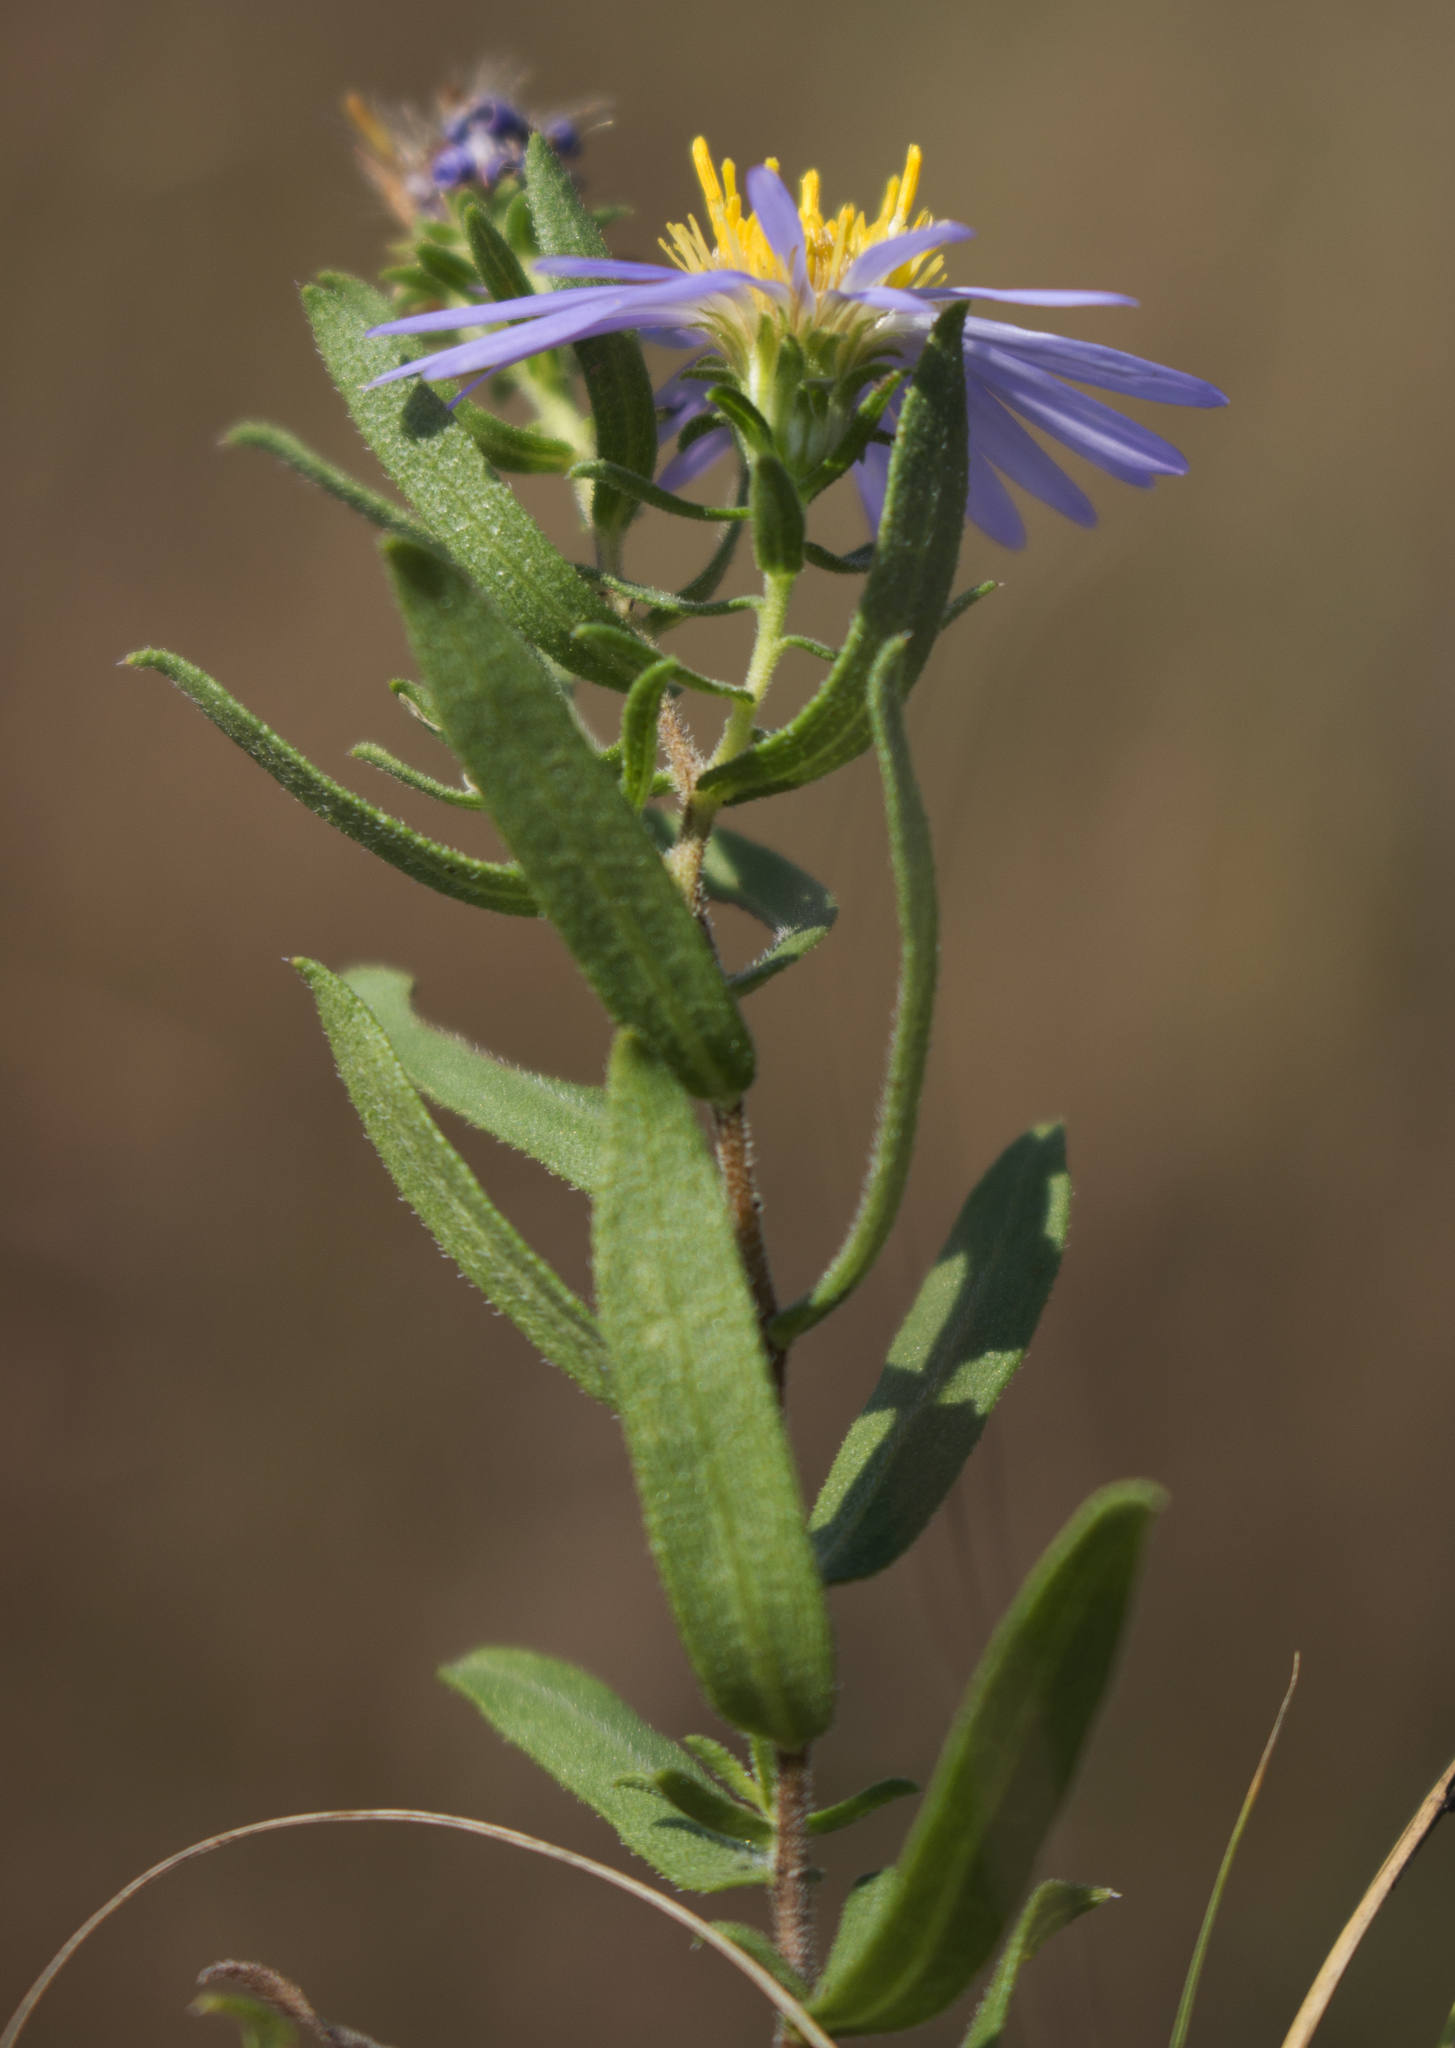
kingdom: Plantae
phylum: Tracheophyta
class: Magnoliopsida
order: Asterales
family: Asteraceae
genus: Symphyotrichum
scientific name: Symphyotrichum oblongifolium
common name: Aromatic aster
